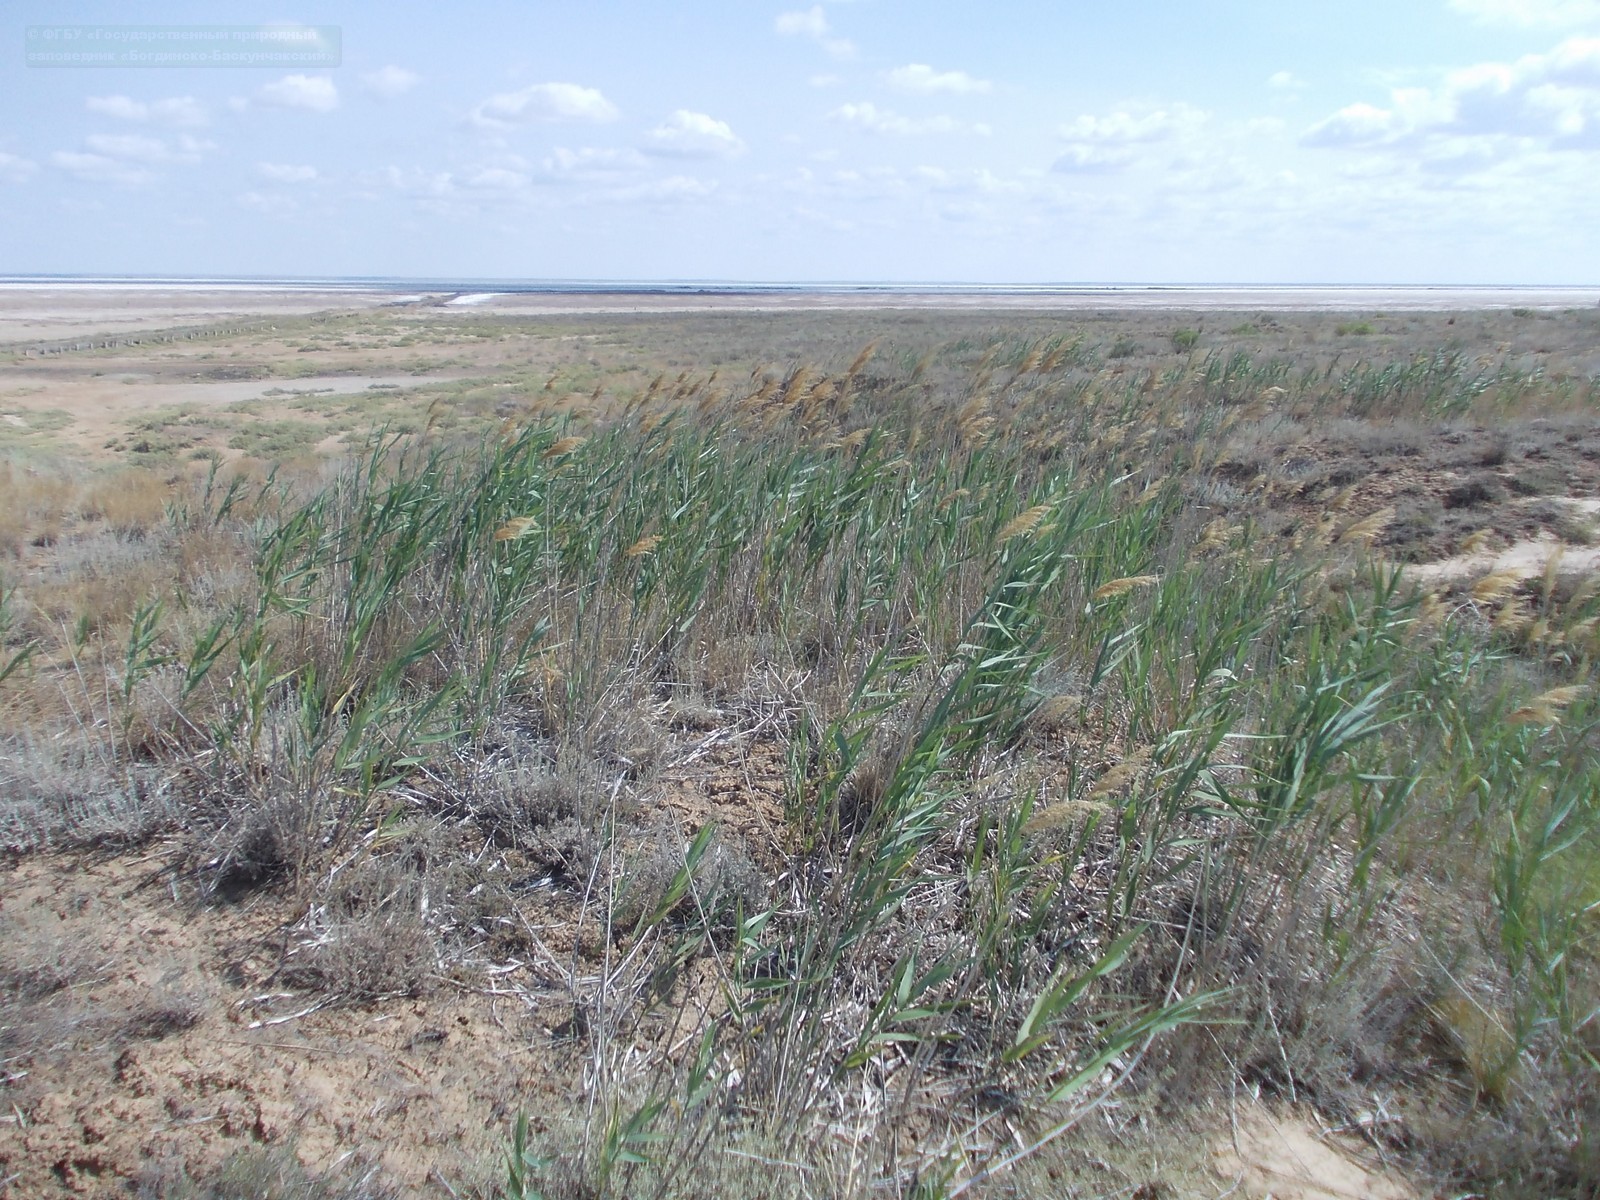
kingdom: Plantae
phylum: Tracheophyta
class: Liliopsida
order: Poales
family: Poaceae
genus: Phragmites
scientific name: Phragmites australis
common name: Common reed
